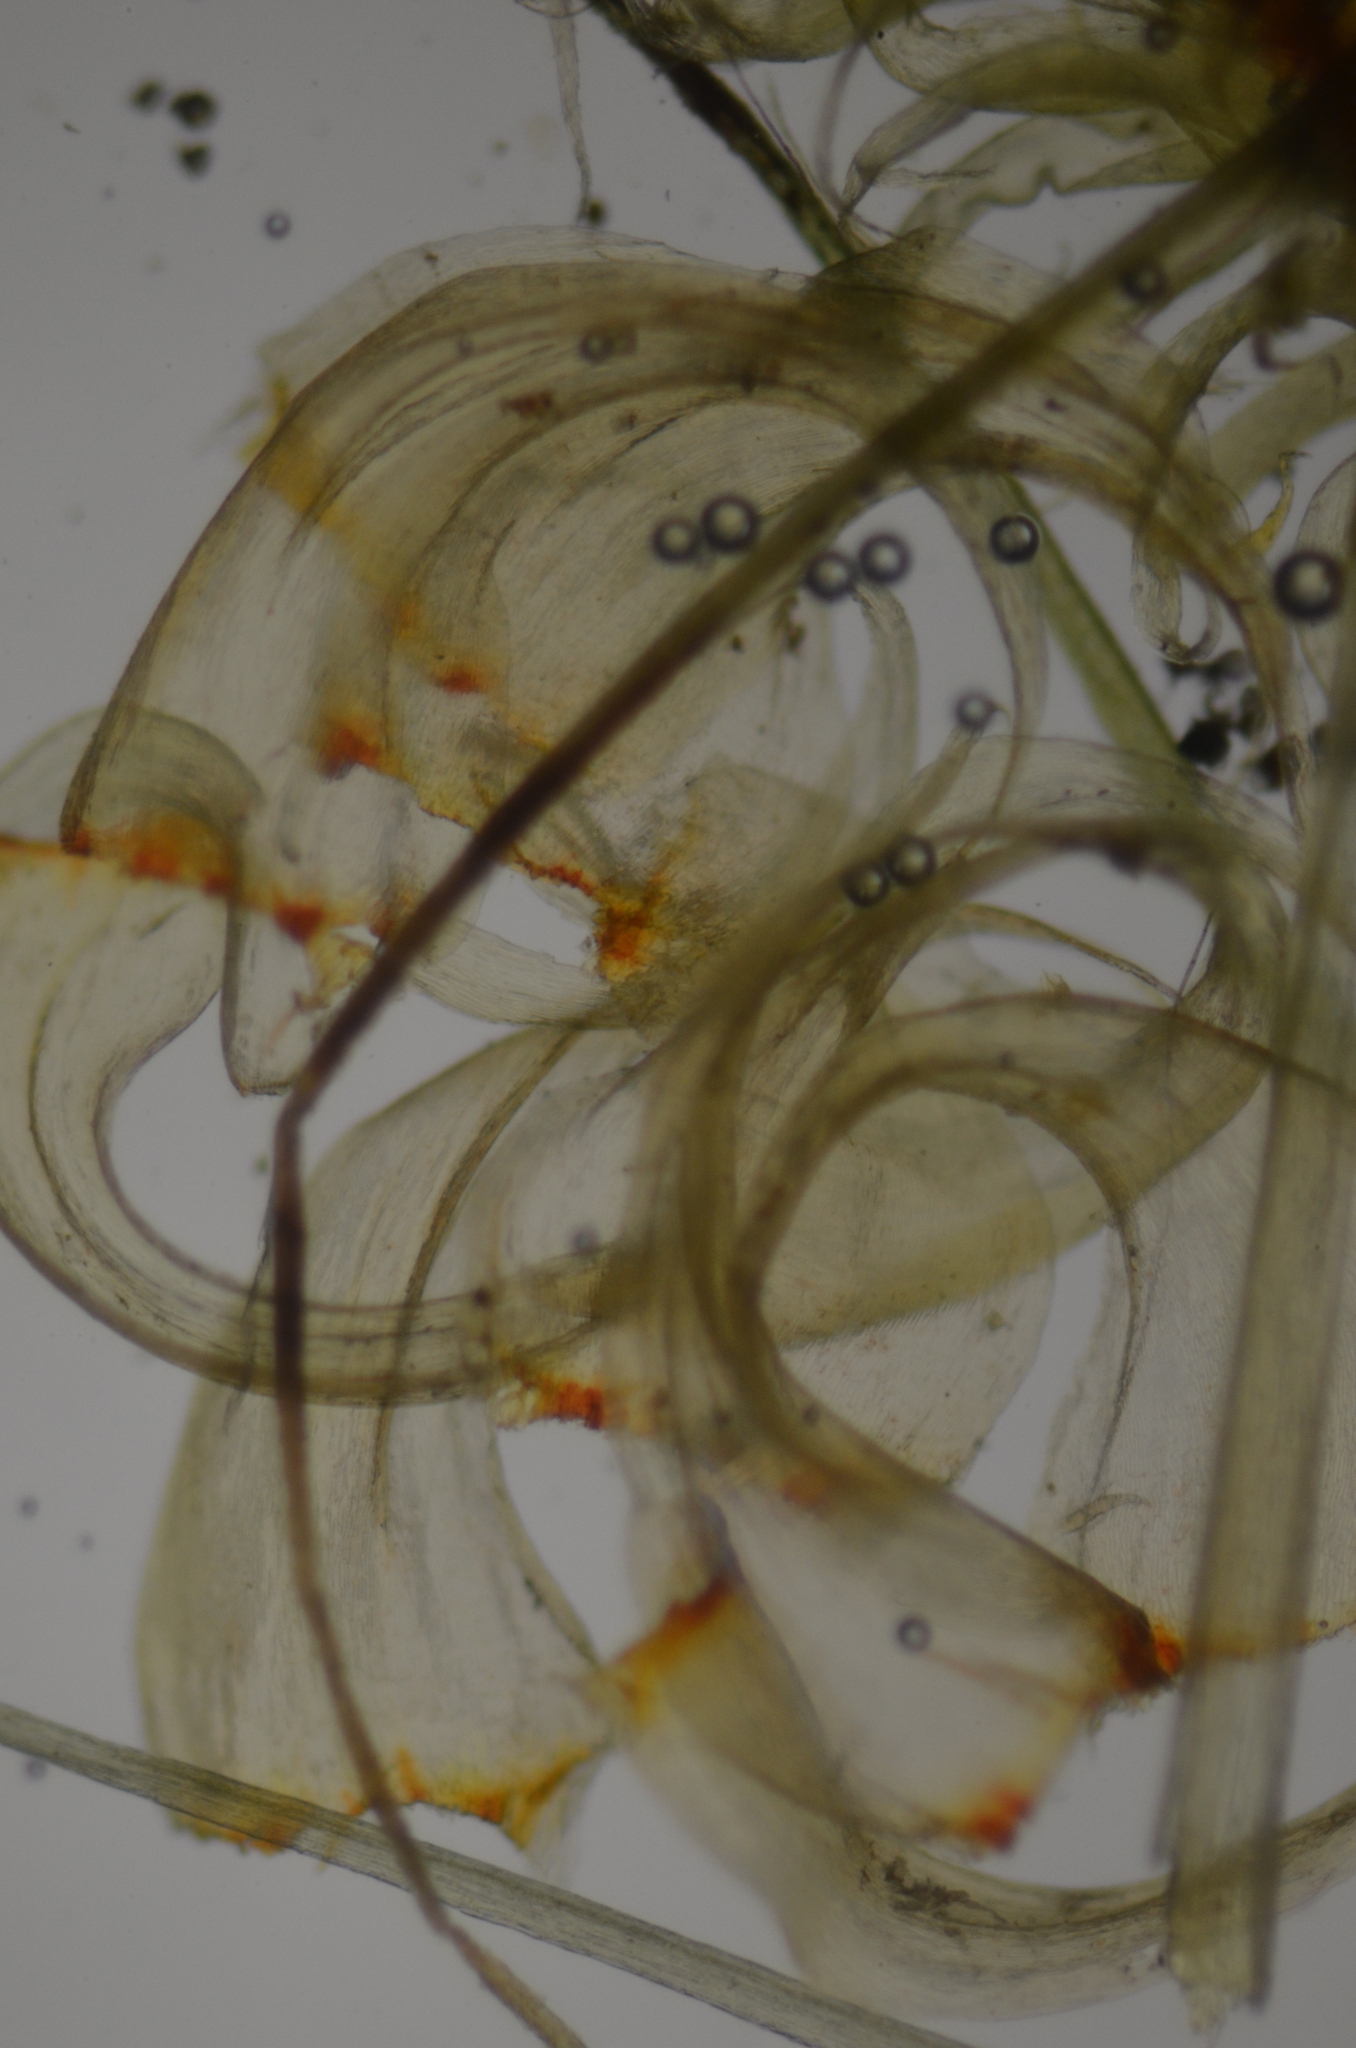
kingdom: Plantae
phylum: Bryophyta
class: Bryopsida
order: Hypnales
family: Pylaisiadelphaceae
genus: Brotherella
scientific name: Brotherella canadensis
